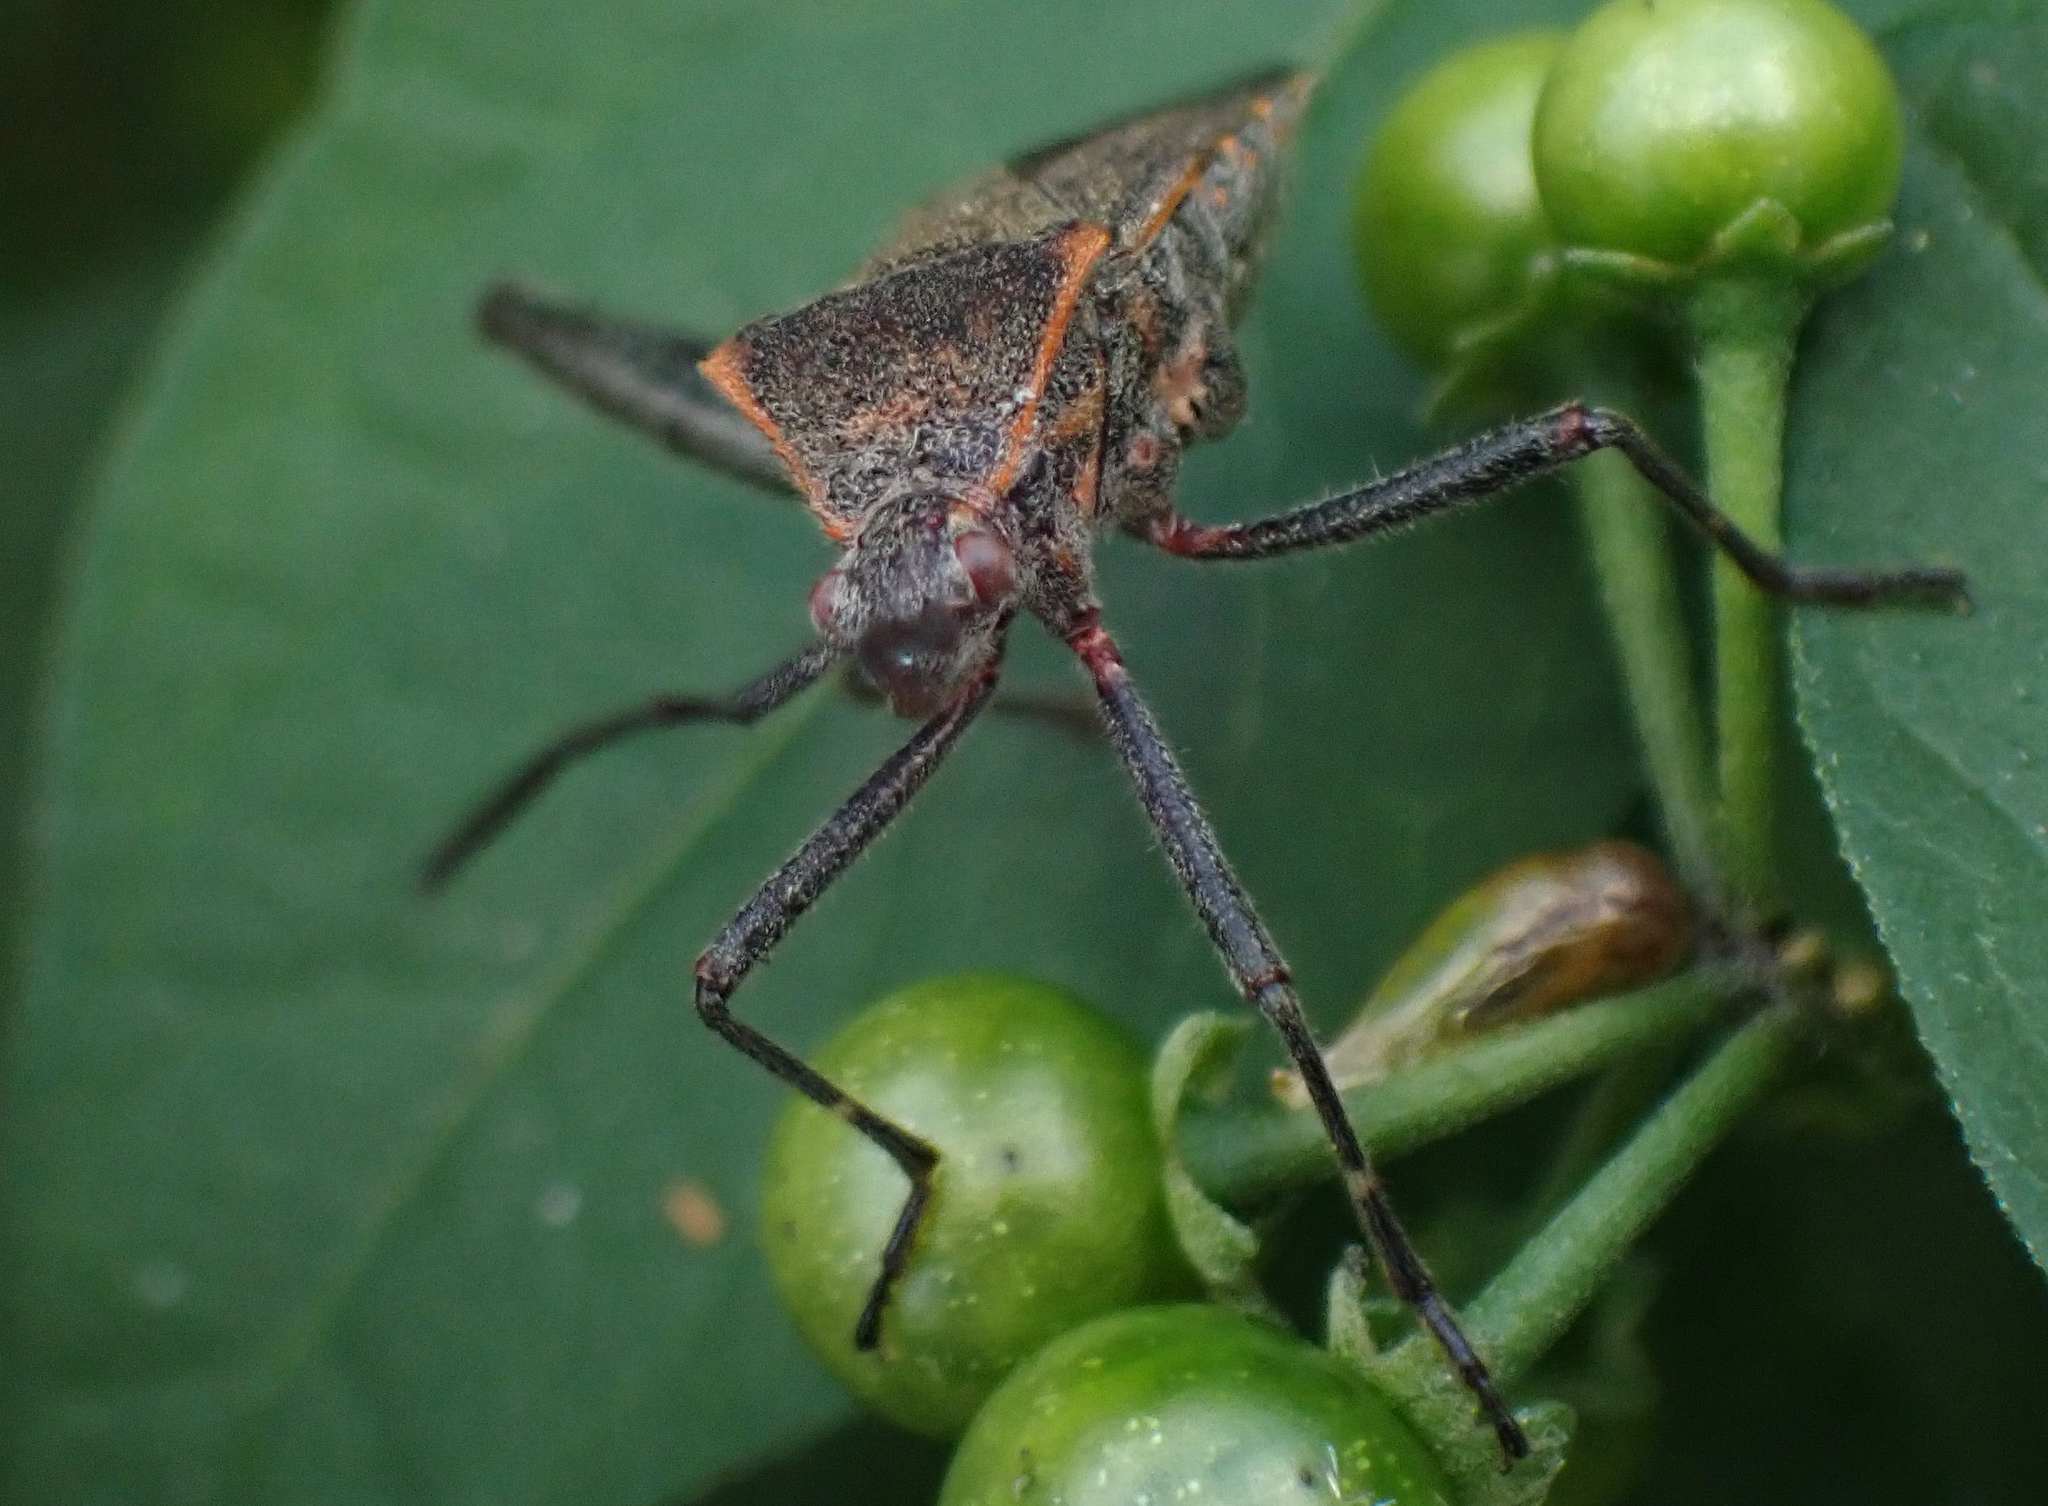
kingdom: Animalia
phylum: Arthropoda
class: Insecta
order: Hemiptera
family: Coreidae
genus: Phthiacnemia
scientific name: Phthiacnemia picta
